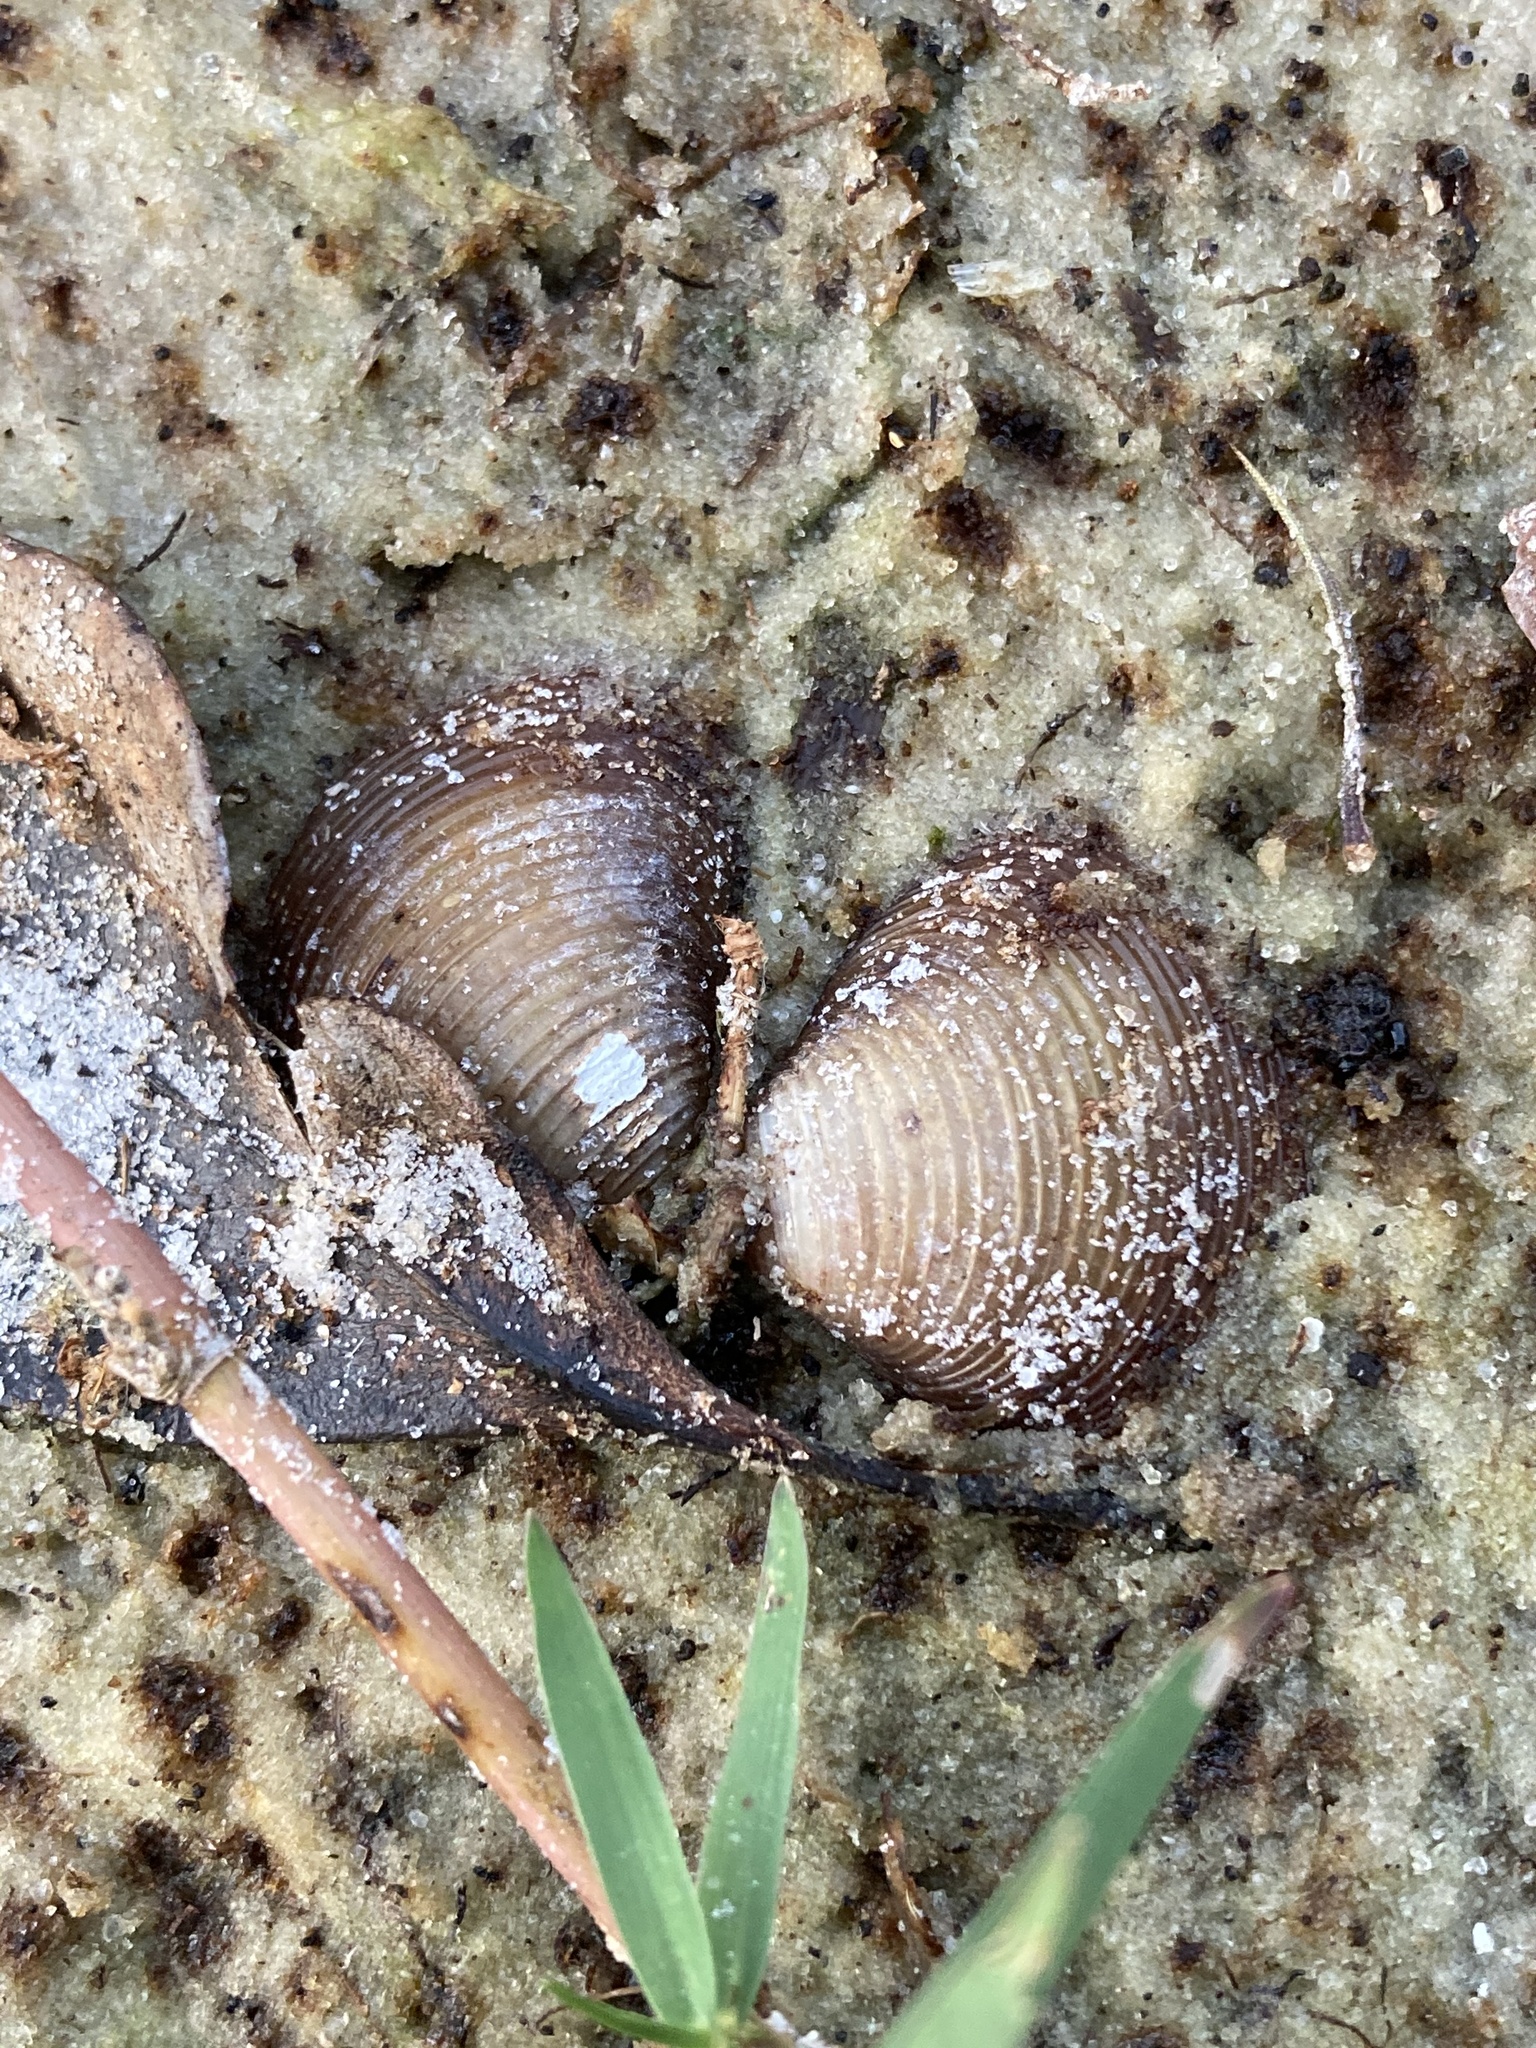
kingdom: Animalia
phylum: Mollusca
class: Bivalvia
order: Venerida
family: Cyrenidae
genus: Corbicula
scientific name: Corbicula fluminea
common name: Asian clam
